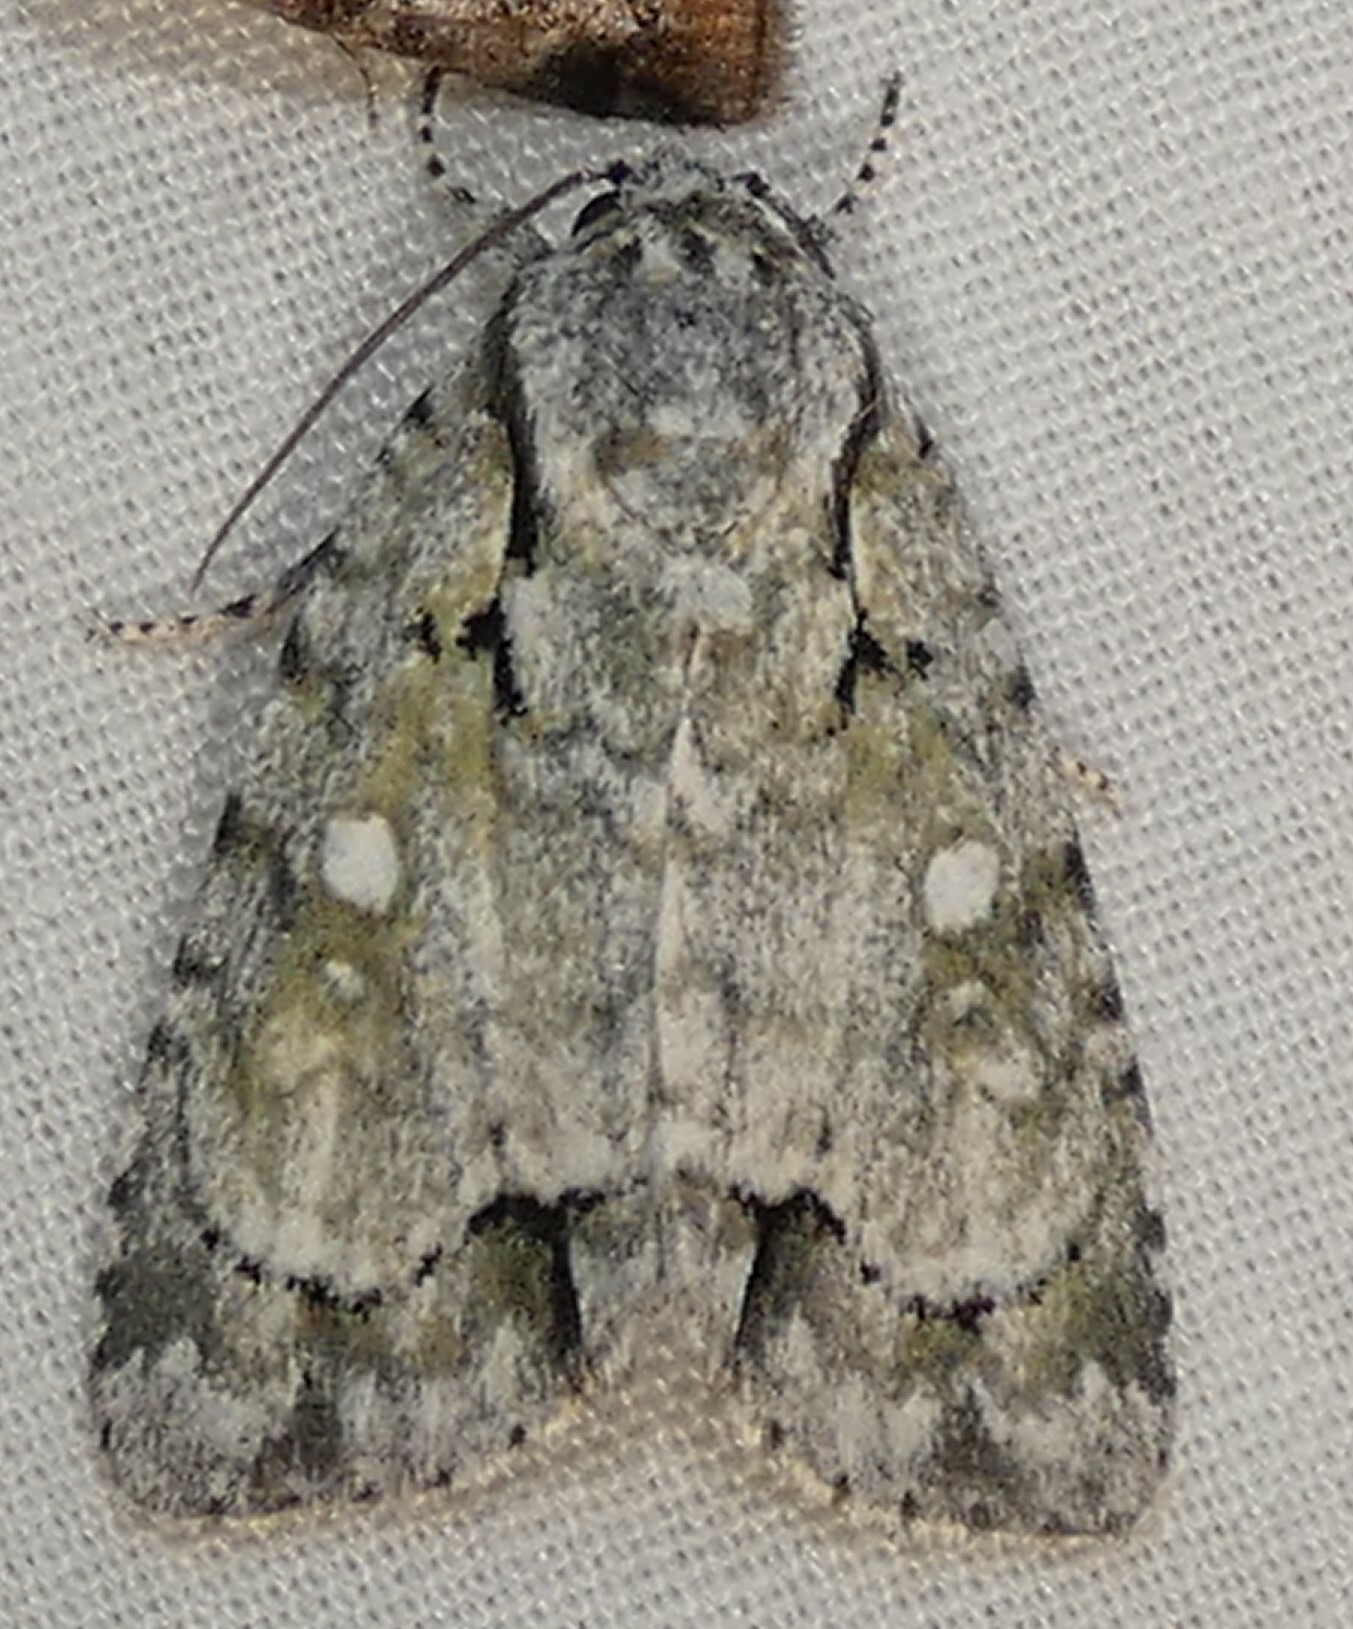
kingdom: Animalia
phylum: Arthropoda
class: Insecta
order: Lepidoptera
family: Noctuidae
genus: Acronicta
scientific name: Acronicta vinnula
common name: Delightful dagger
